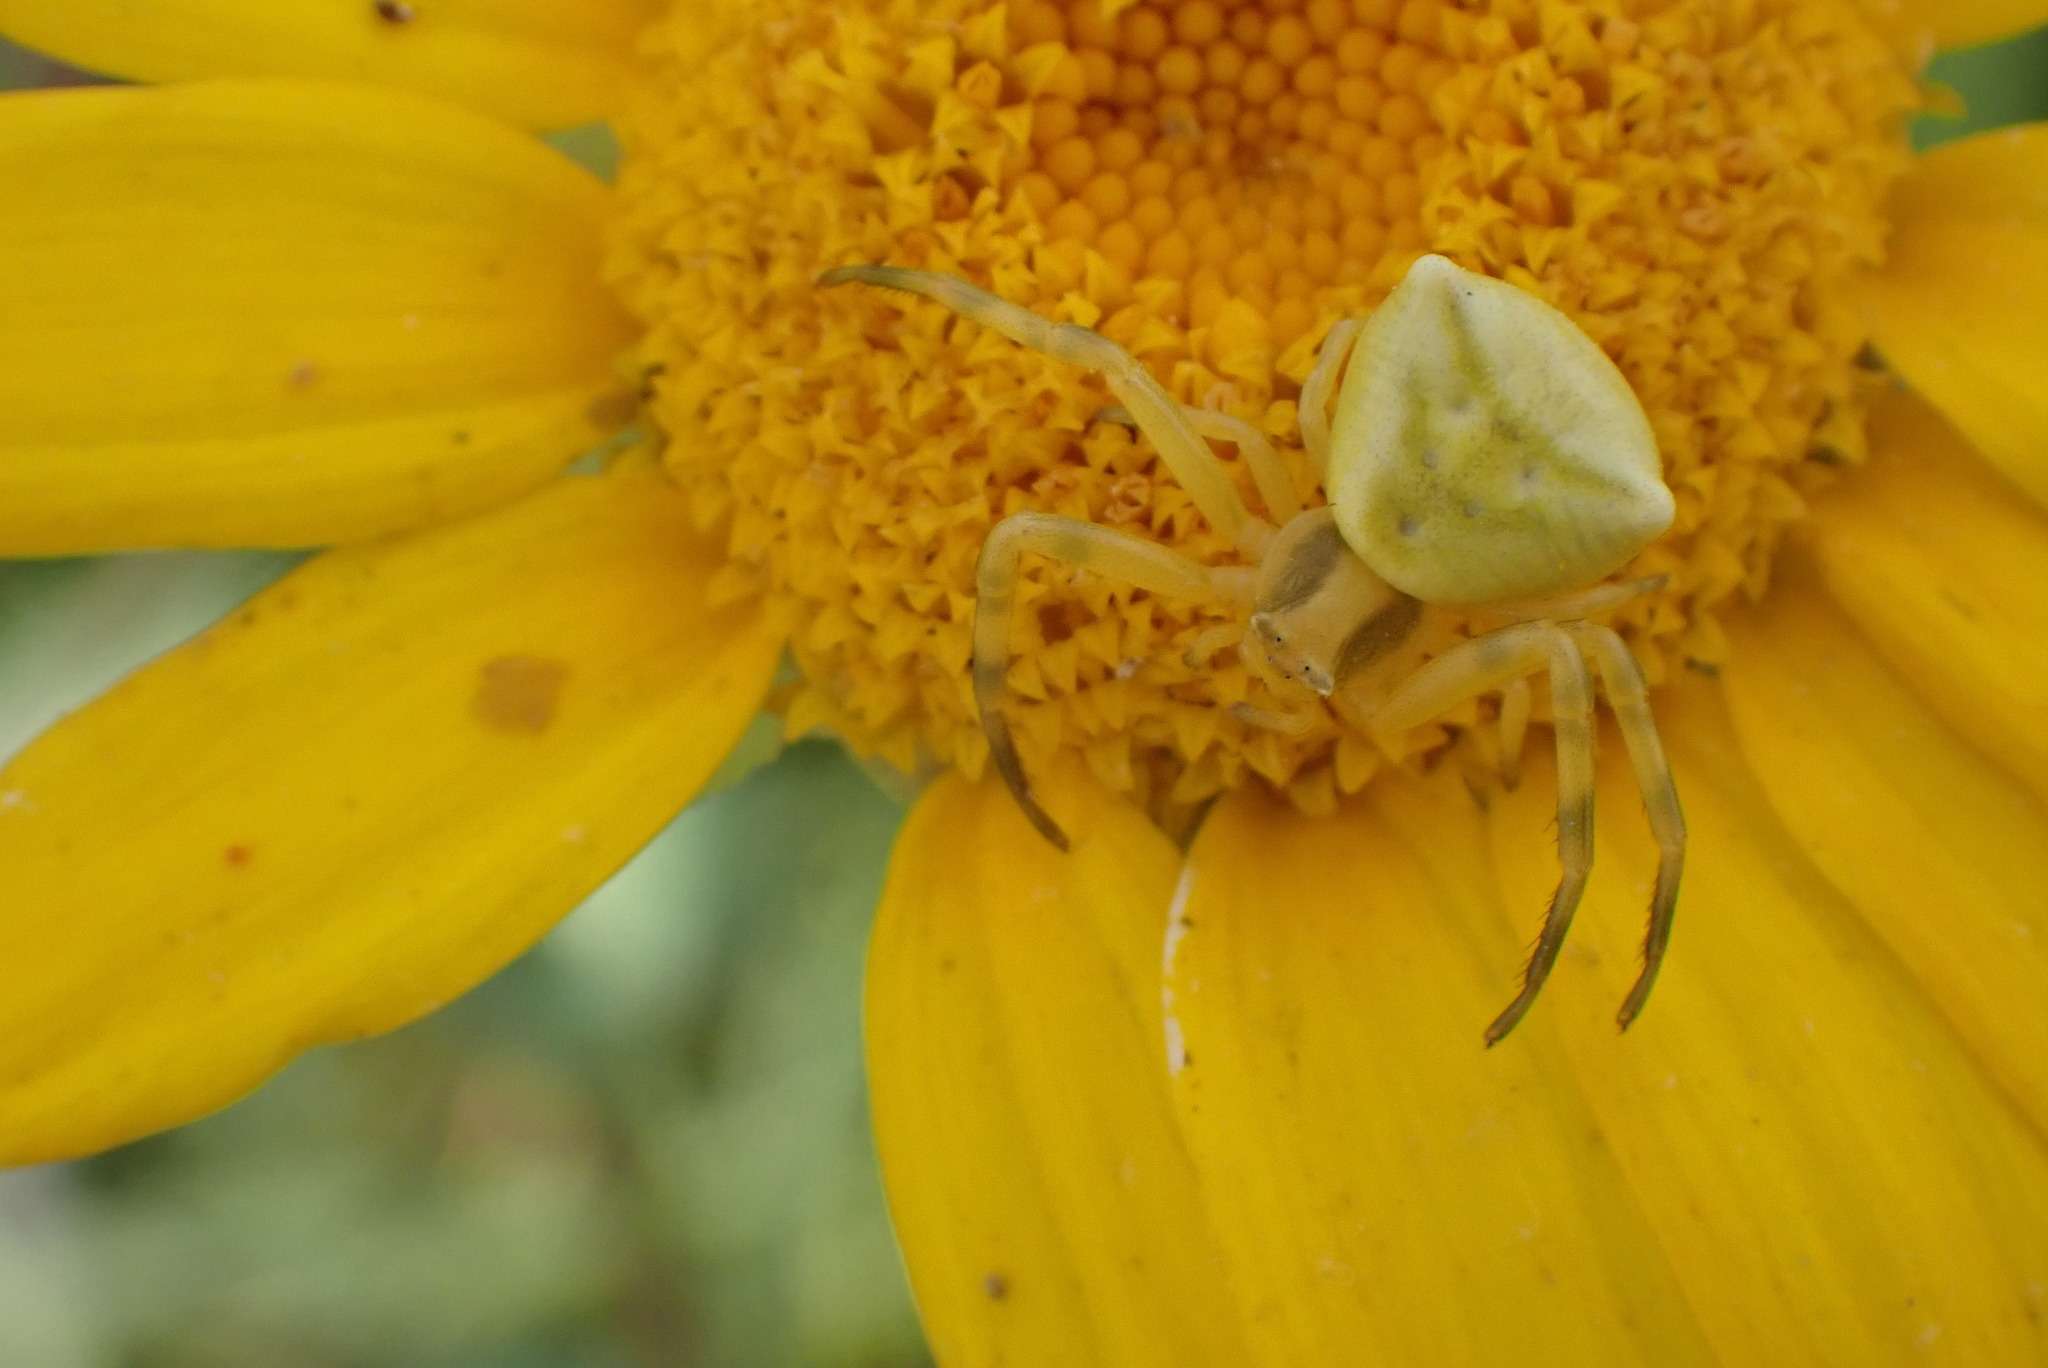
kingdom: Animalia
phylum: Arthropoda
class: Arachnida
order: Araneae
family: Thomisidae
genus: Thomisus
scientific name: Thomisus onustus
